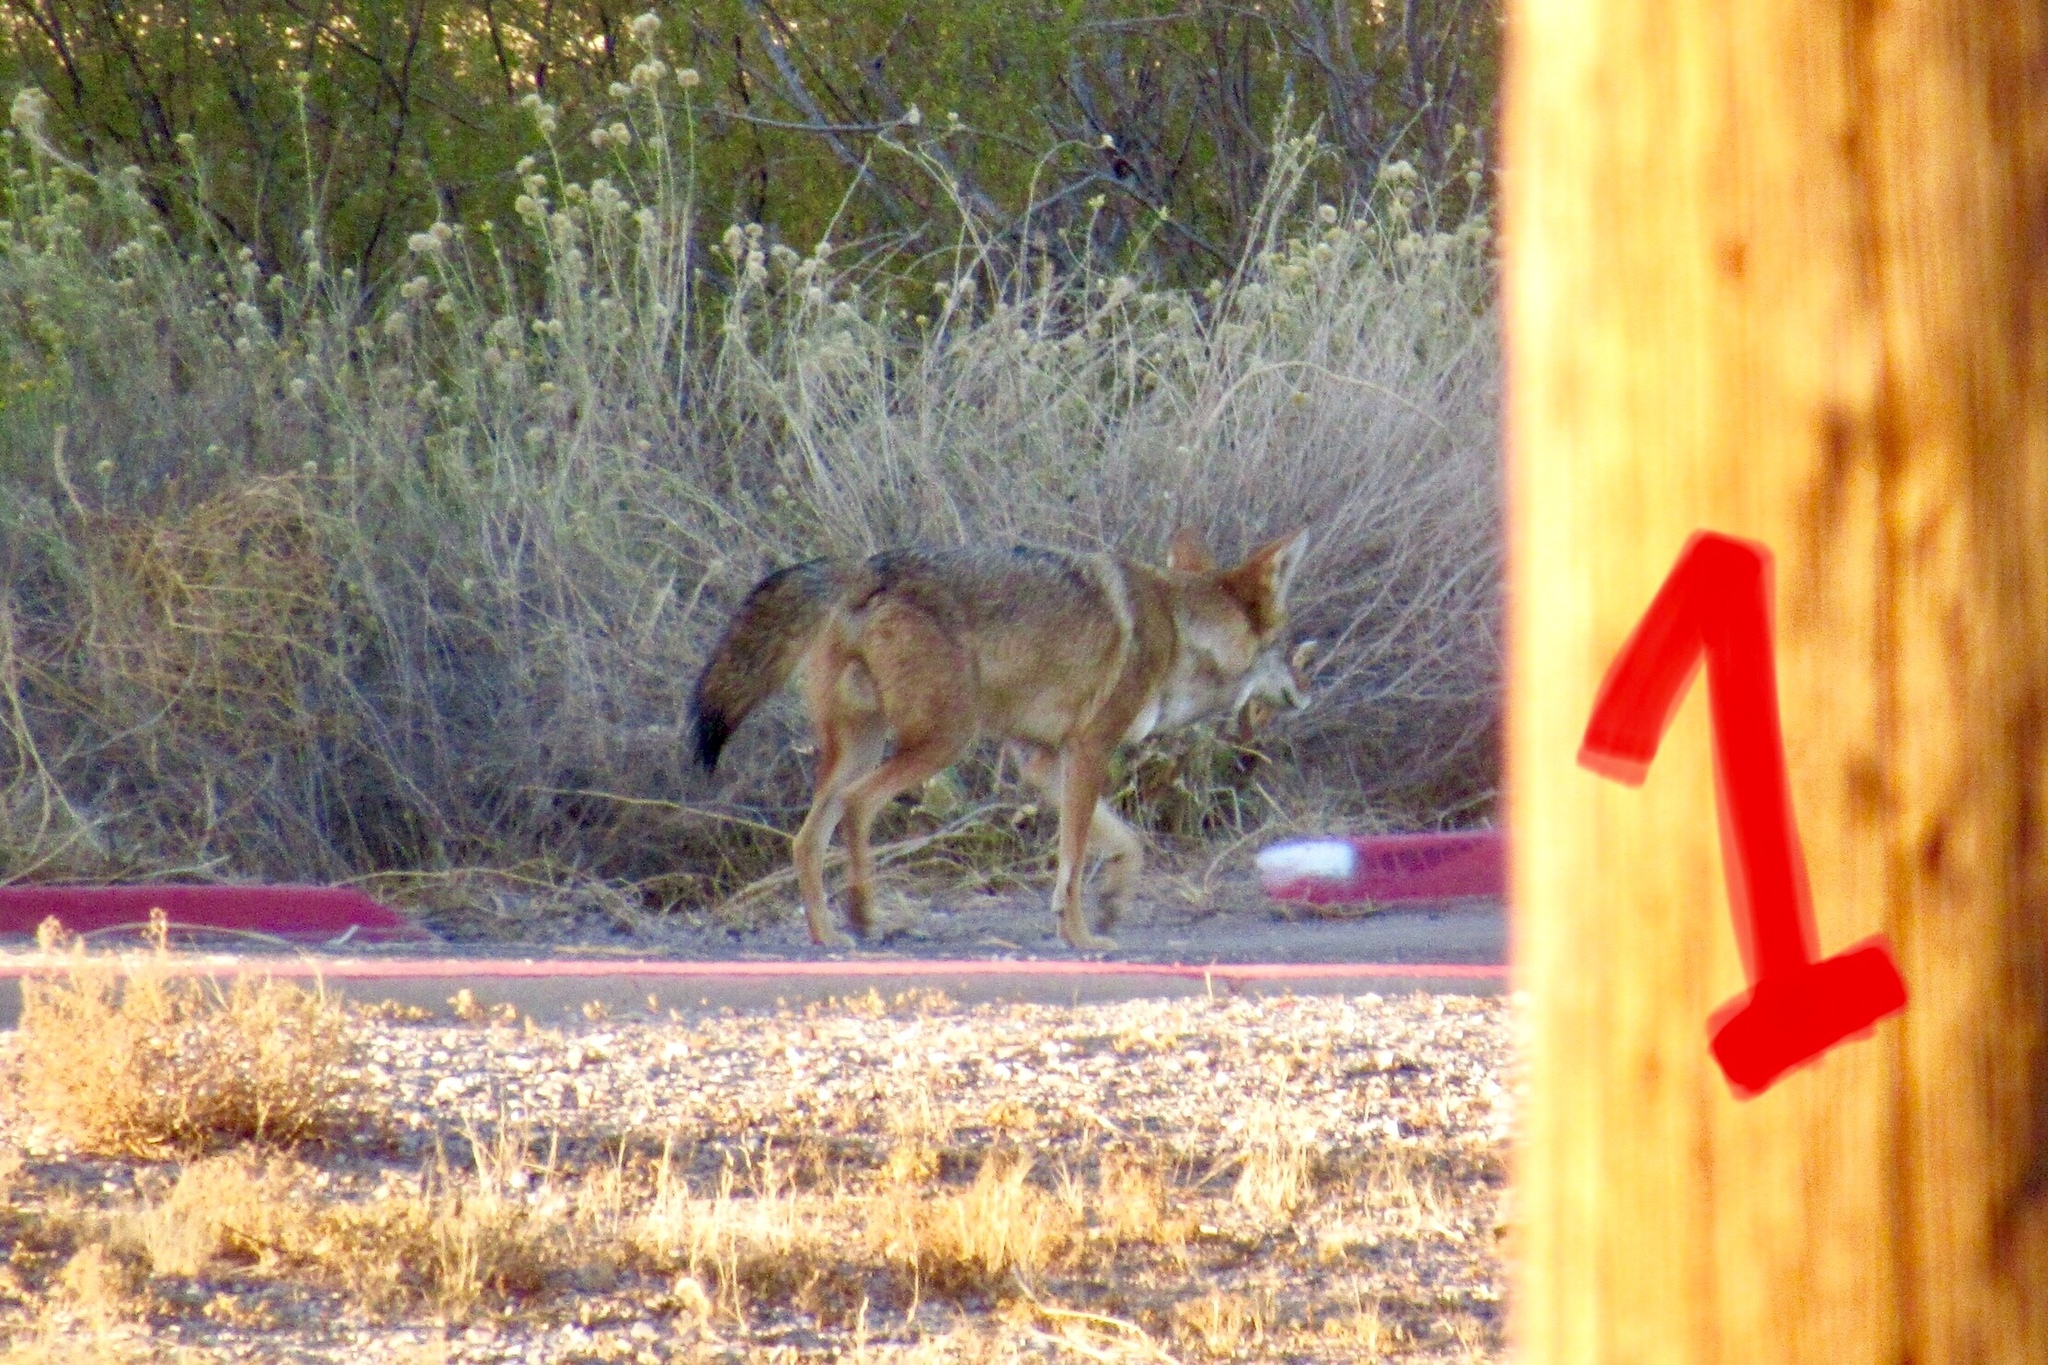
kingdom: Animalia
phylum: Chordata
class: Mammalia
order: Carnivora
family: Canidae
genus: Canis
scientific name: Canis latrans
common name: Coyote
